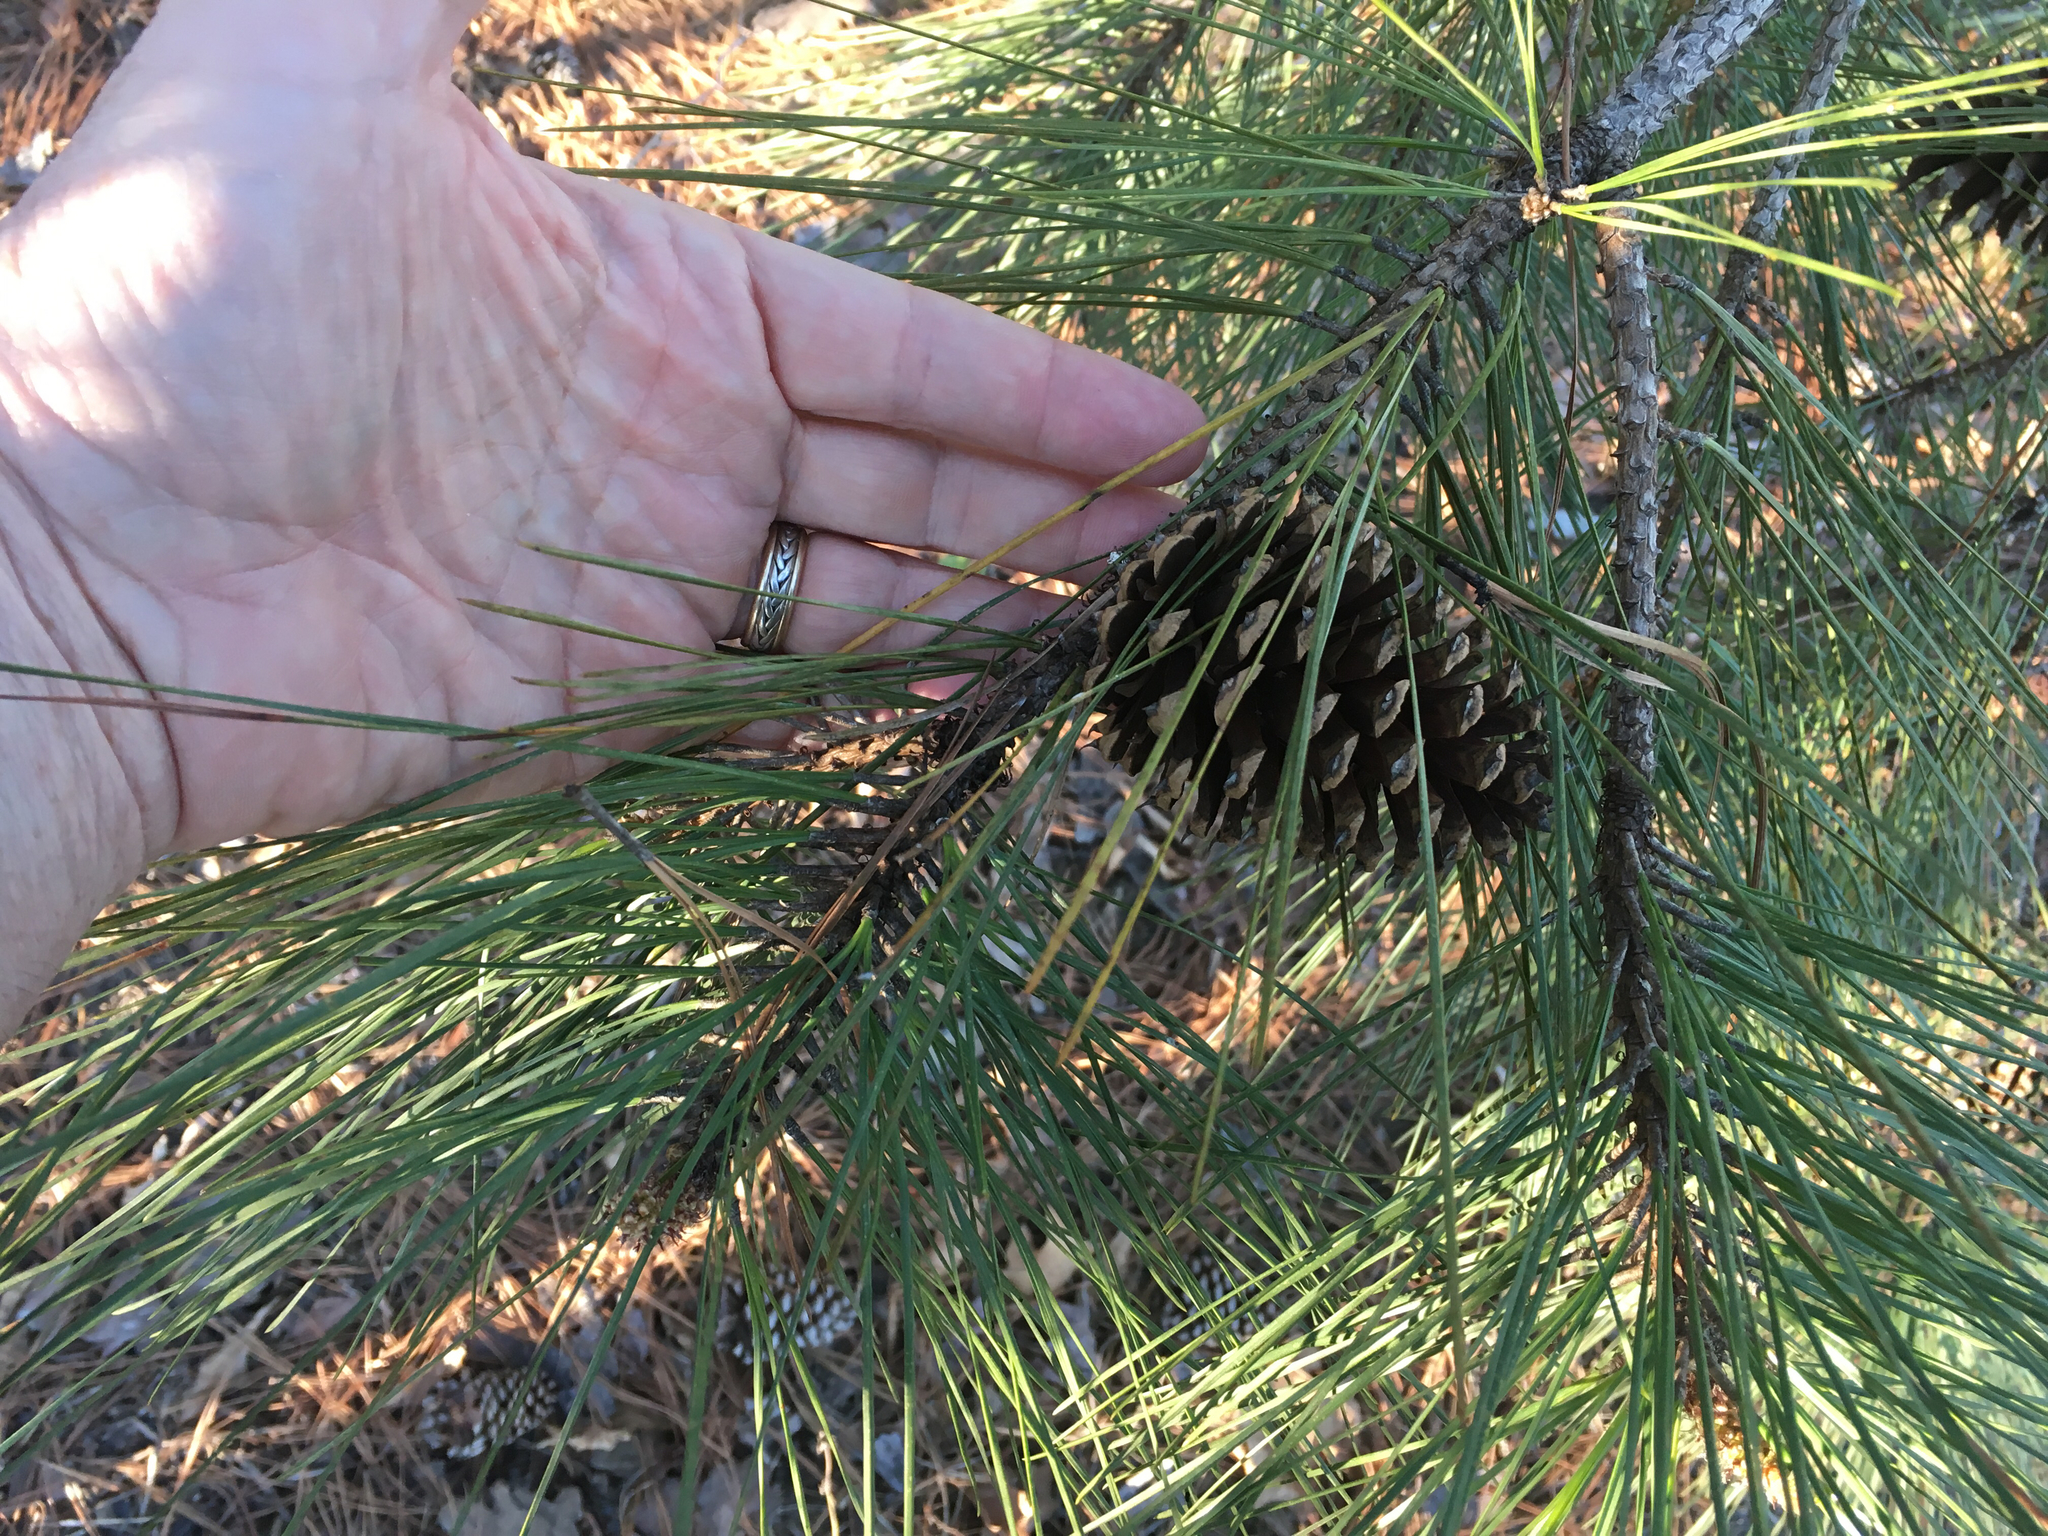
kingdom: Plantae
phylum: Tracheophyta
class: Pinopsida
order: Pinales
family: Pinaceae
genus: Pinus
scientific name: Pinus taeda
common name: Loblolly pine
